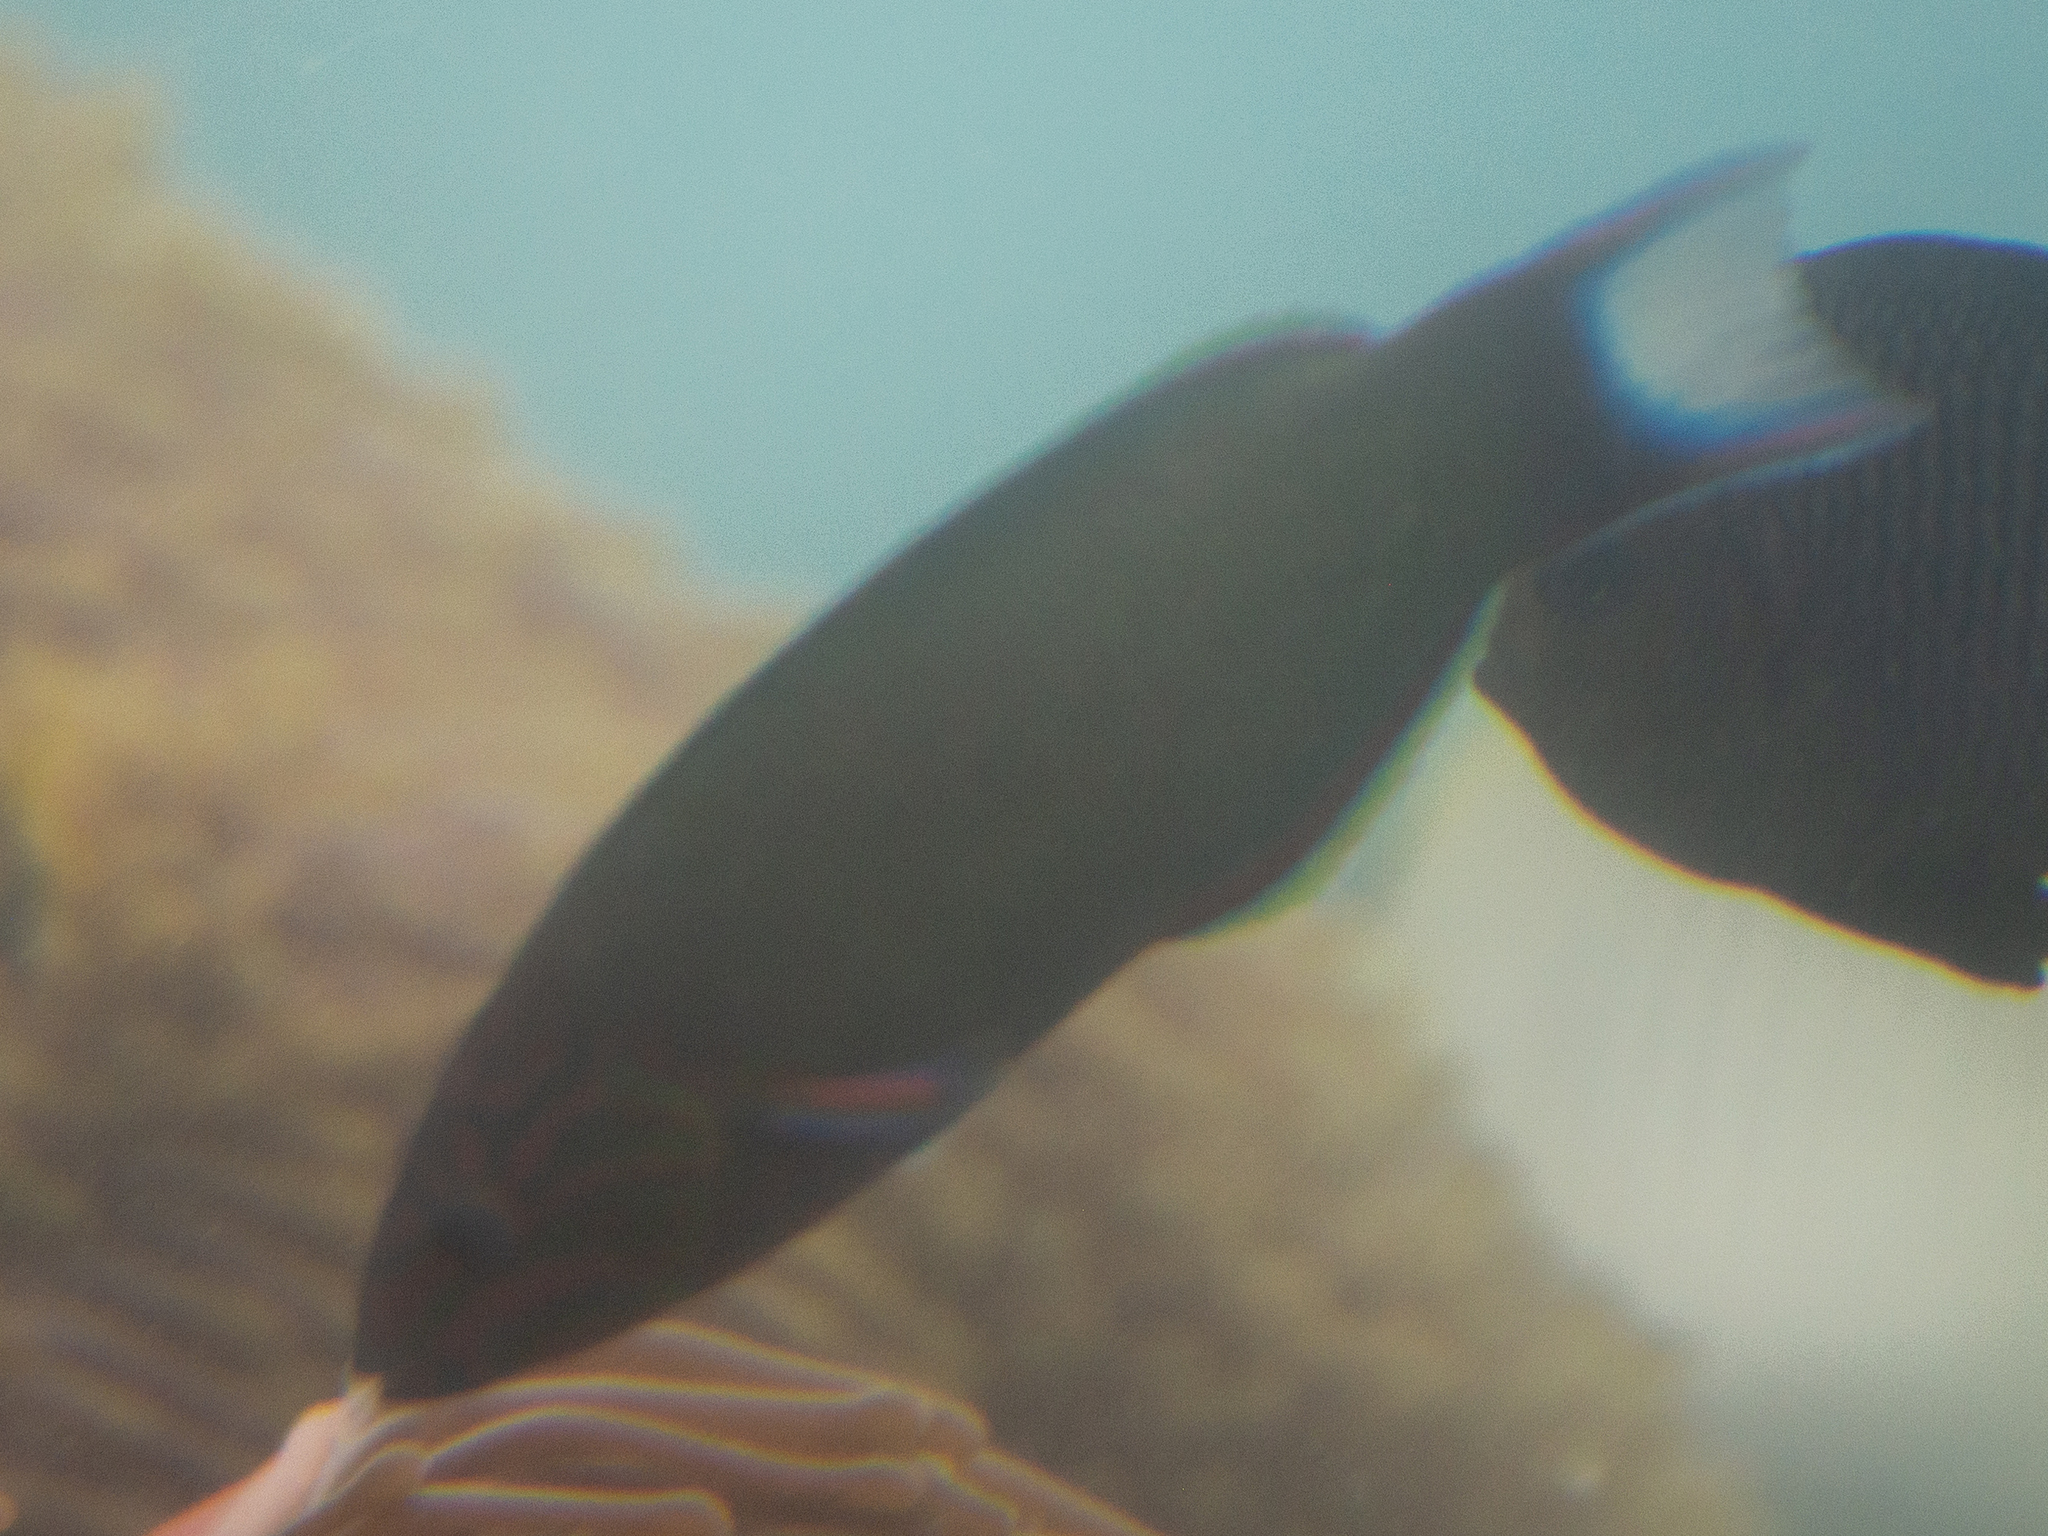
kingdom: Animalia
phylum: Chordata
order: Perciformes
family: Labridae
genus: Thalassoma
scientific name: Thalassoma lunare
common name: Blue wrasse
